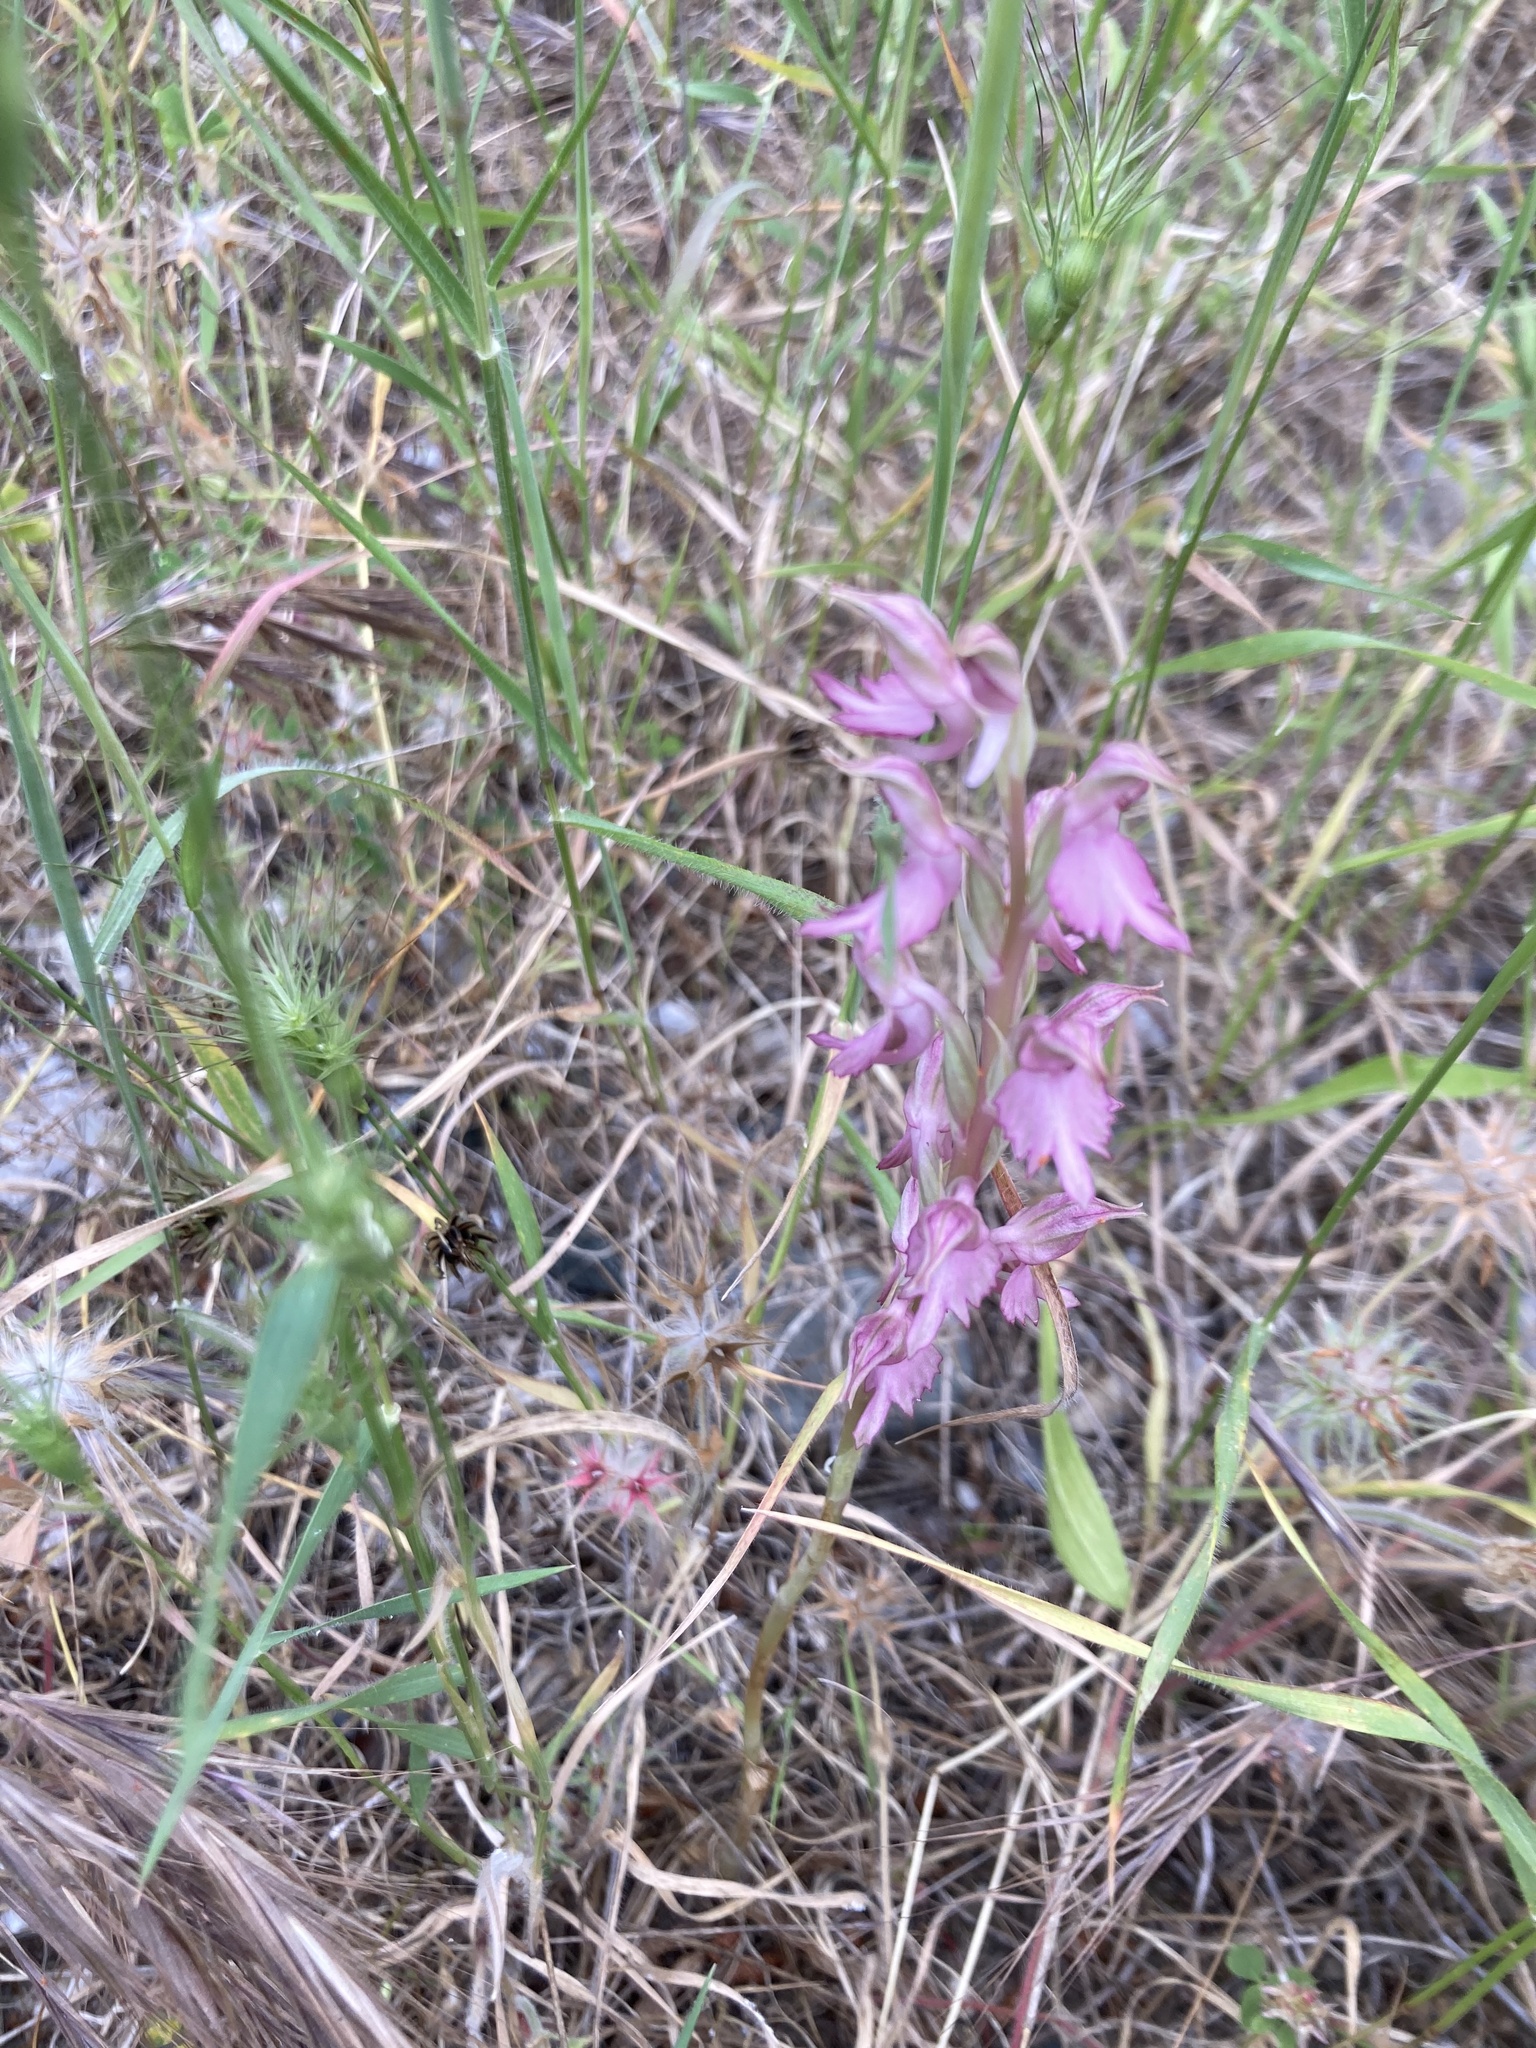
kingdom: Plantae
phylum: Tracheophyta
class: Liliopsida
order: Asparagales
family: Orchidaceae
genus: Anacamptis
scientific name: Anacamptis sancta
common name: Holy orchid
